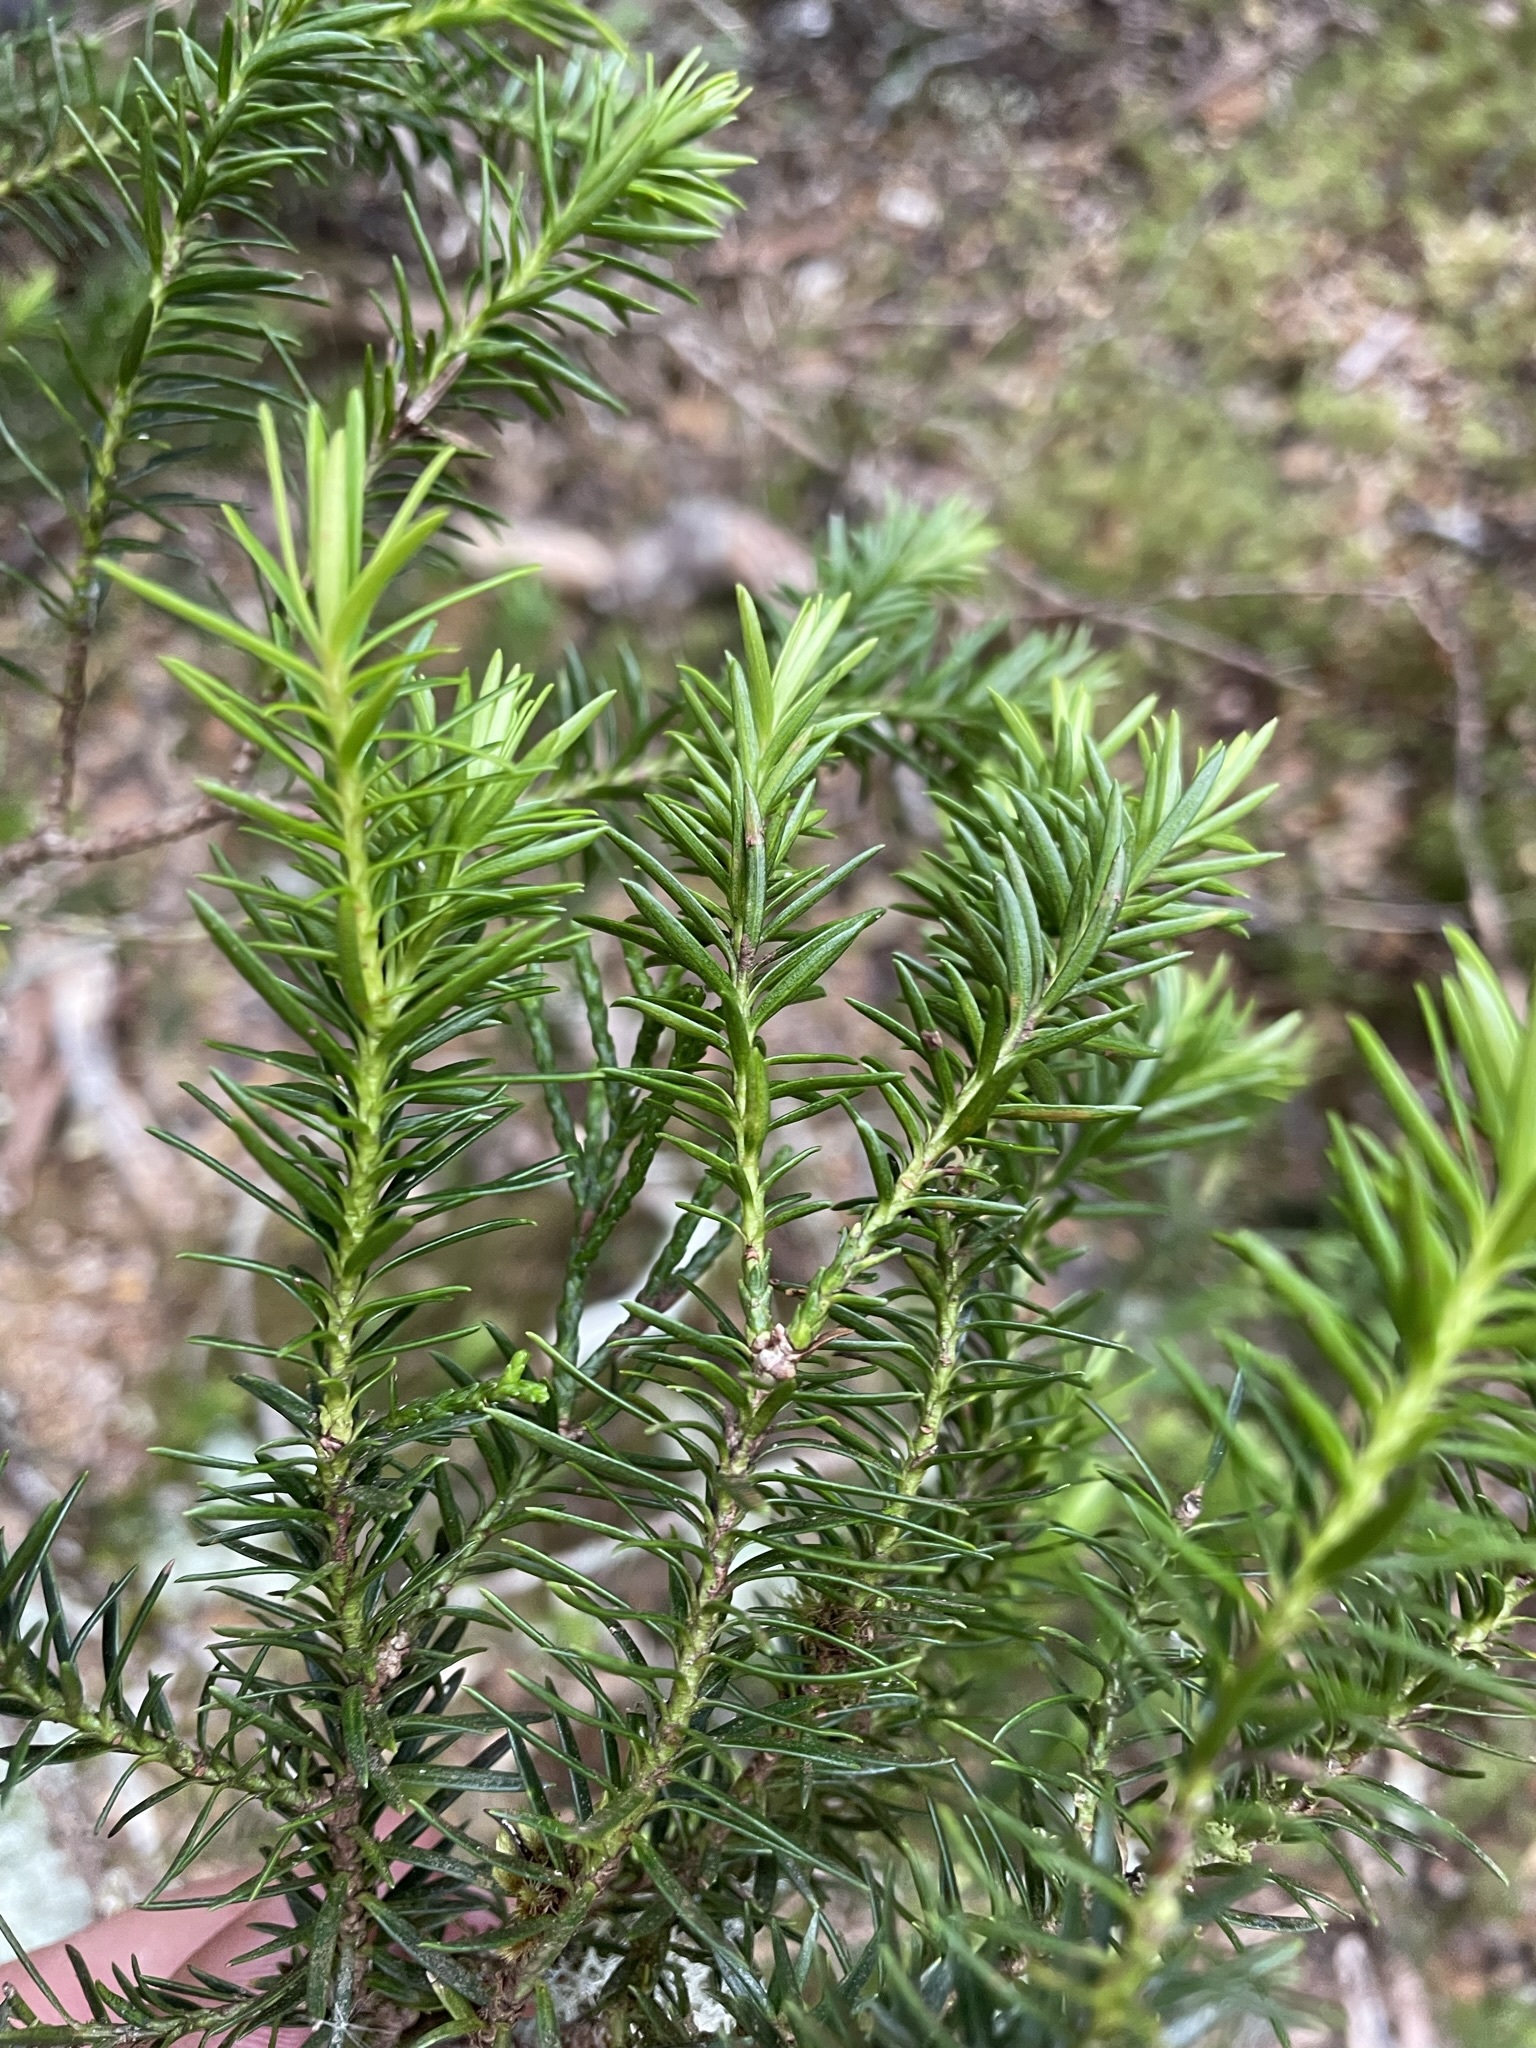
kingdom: Plantae
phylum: Tracheophyta
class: Pinopsida
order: Pinales
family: Podocarpaceae
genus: Halocarpus
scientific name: Halocarpus biformis
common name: Alpine tarwood
